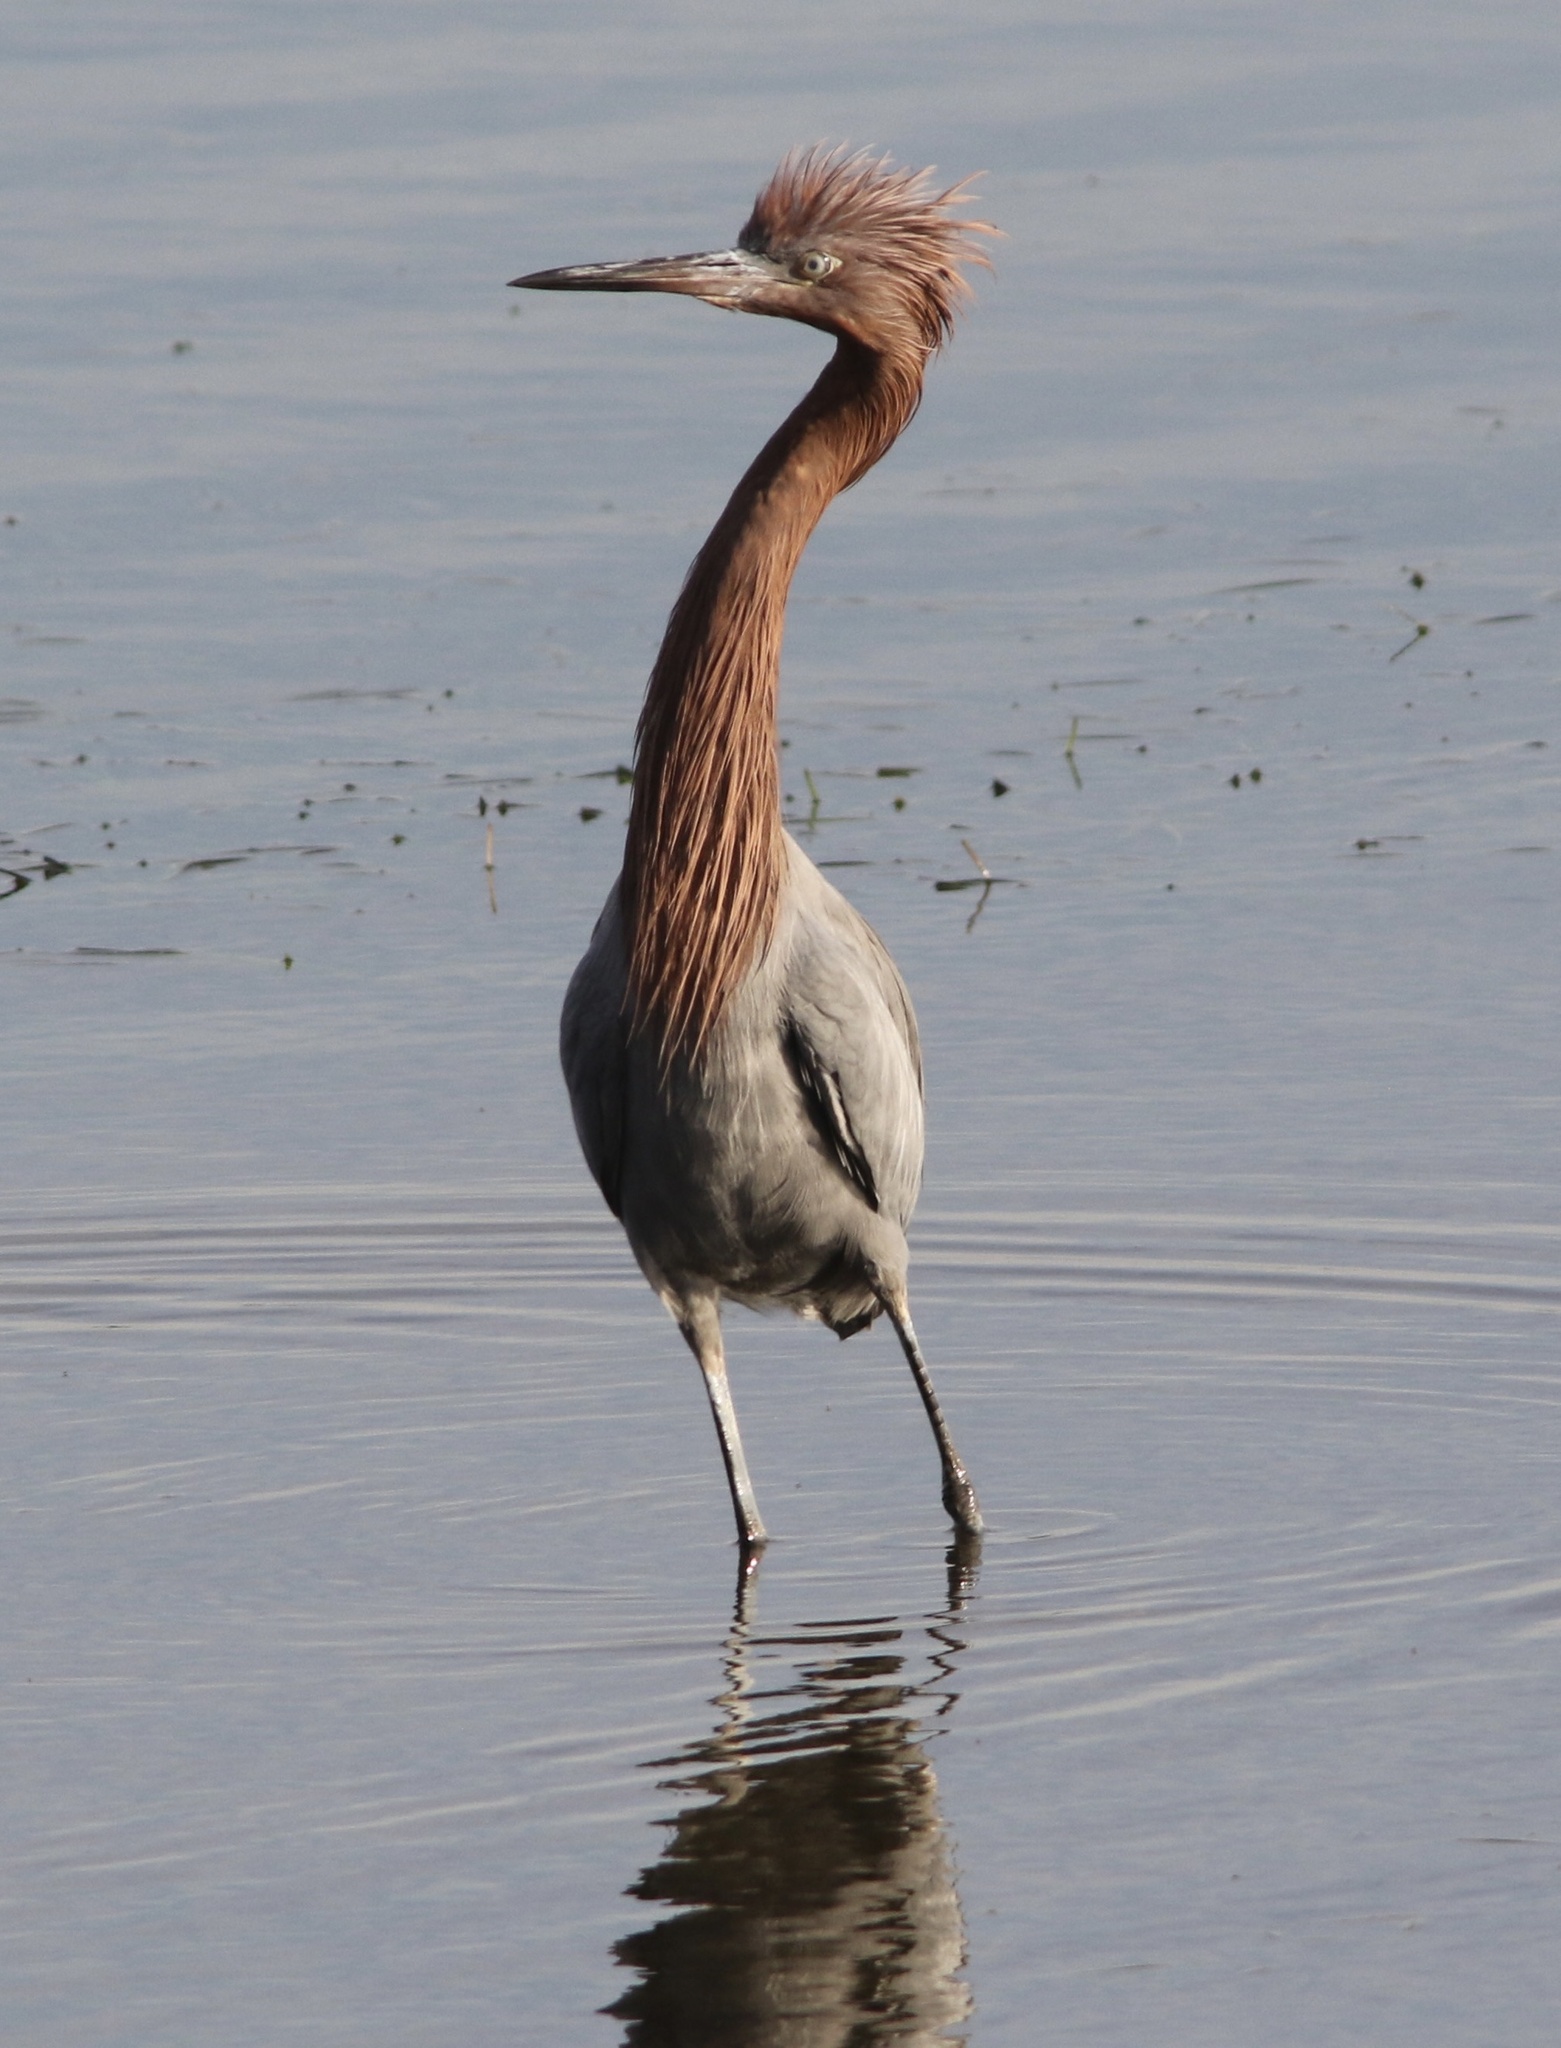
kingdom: Animalia
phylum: Chordata
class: Aves
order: Pelecaniformes
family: Ardeidae
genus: Egretta
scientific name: Egretta rufescens
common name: Reddish egret
